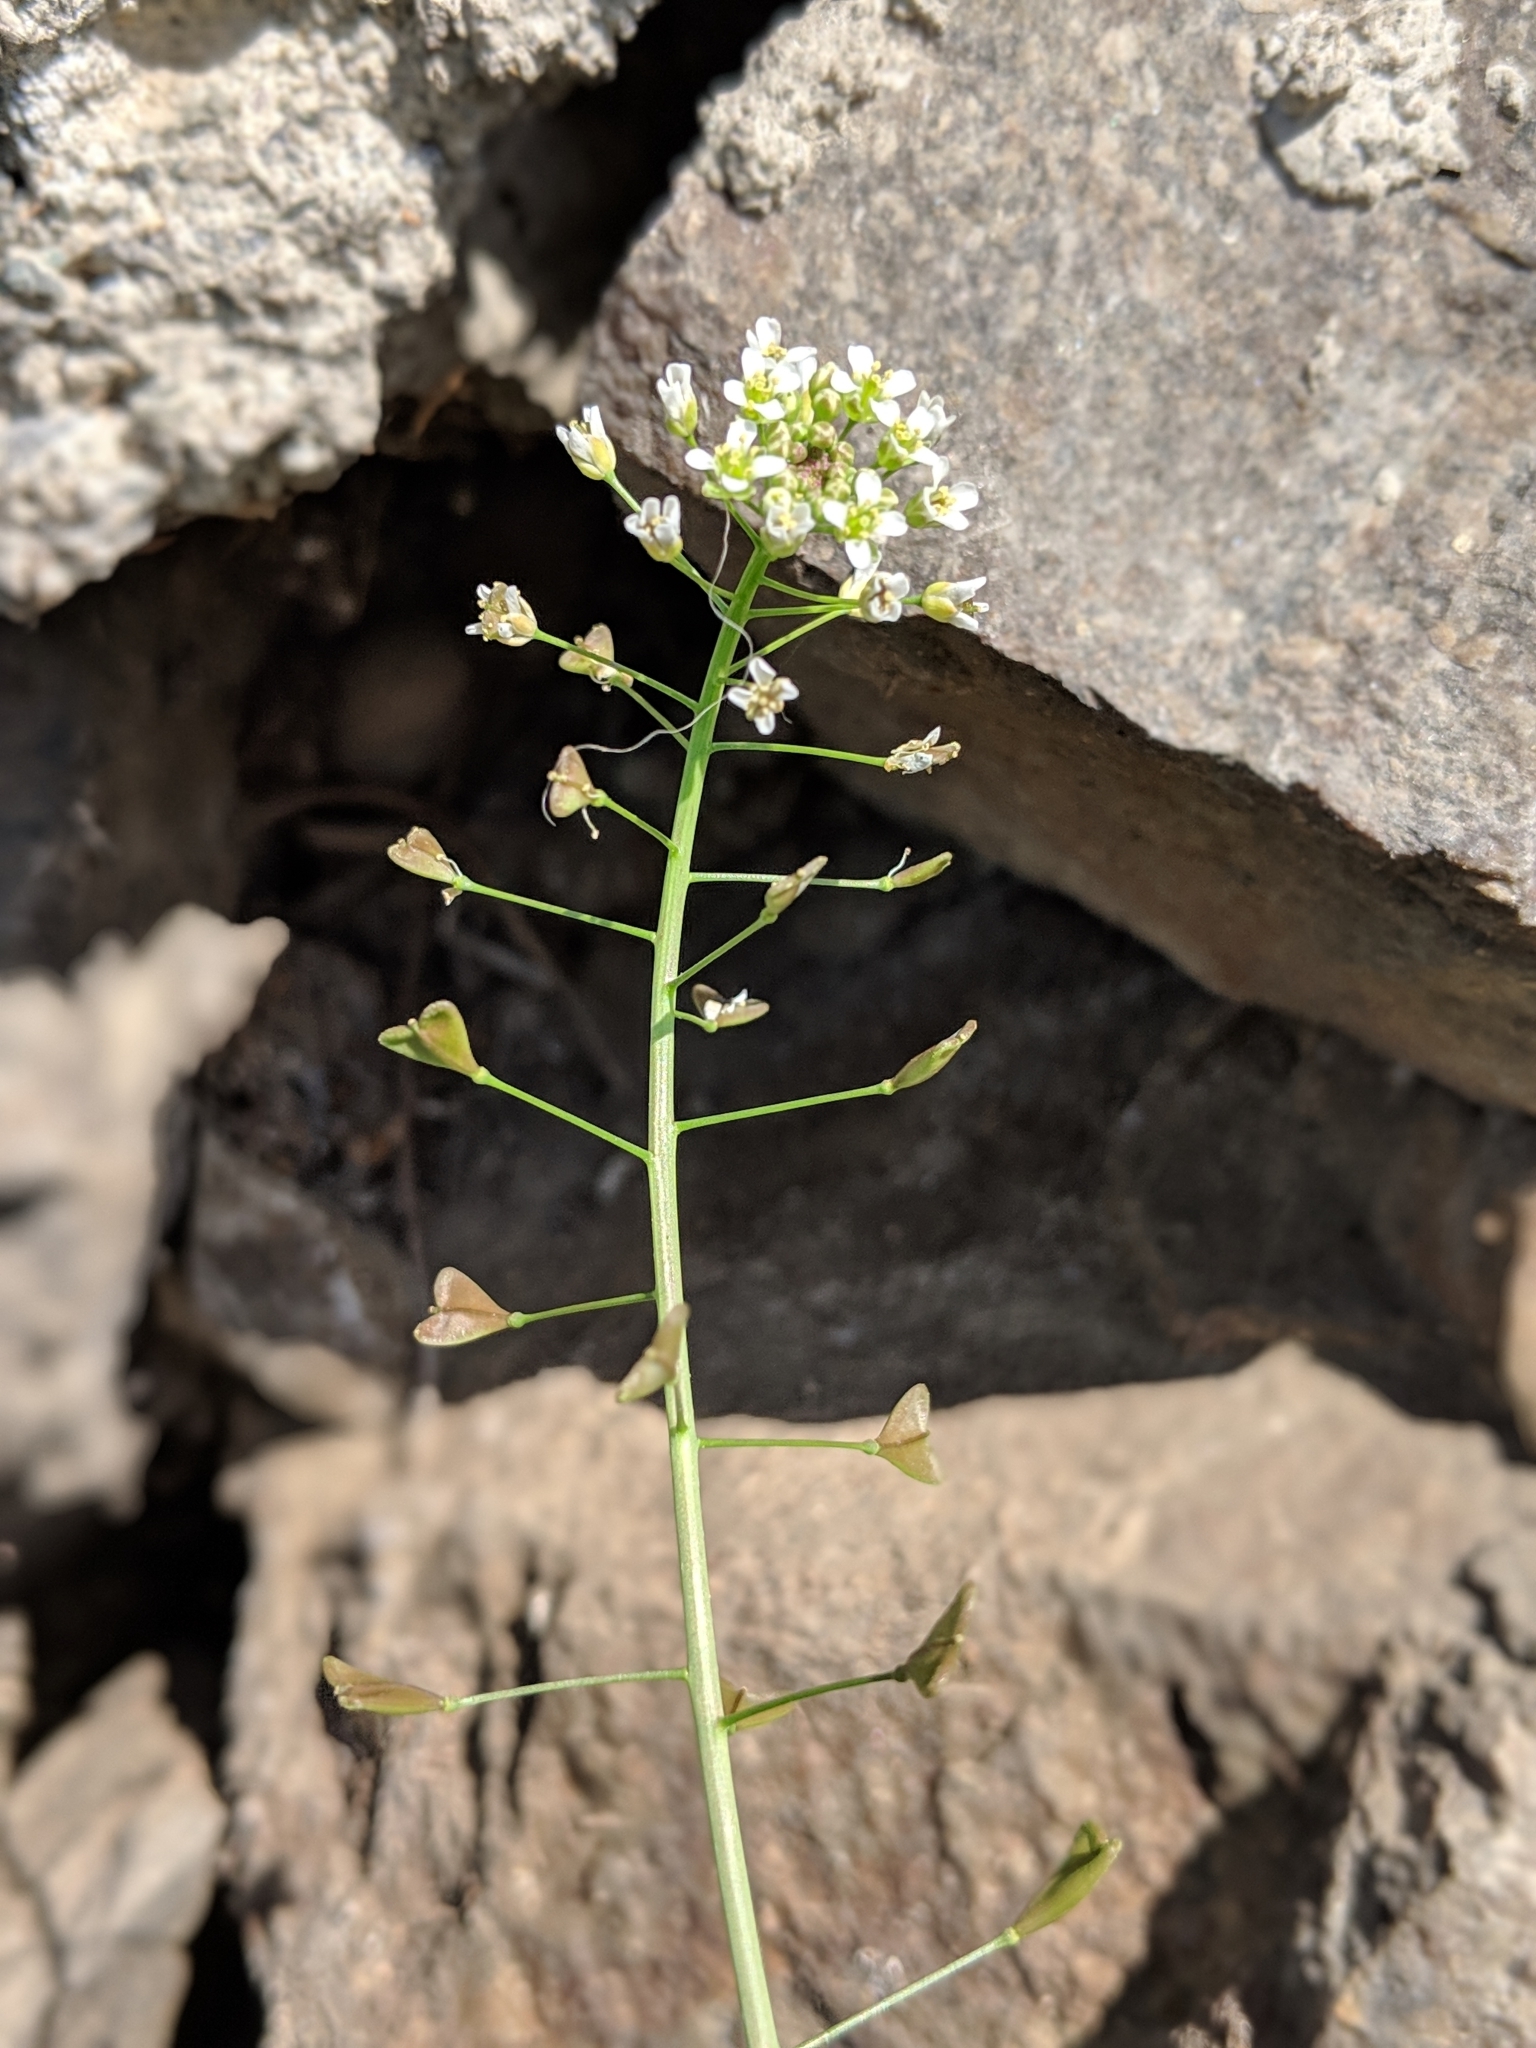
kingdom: Plantae
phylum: Tracheophyta
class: Magnoliopsida
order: Brassicales
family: Brassicaceae
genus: Capsella
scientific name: Capsella bursa-pastoris
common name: Shepherd's purse
